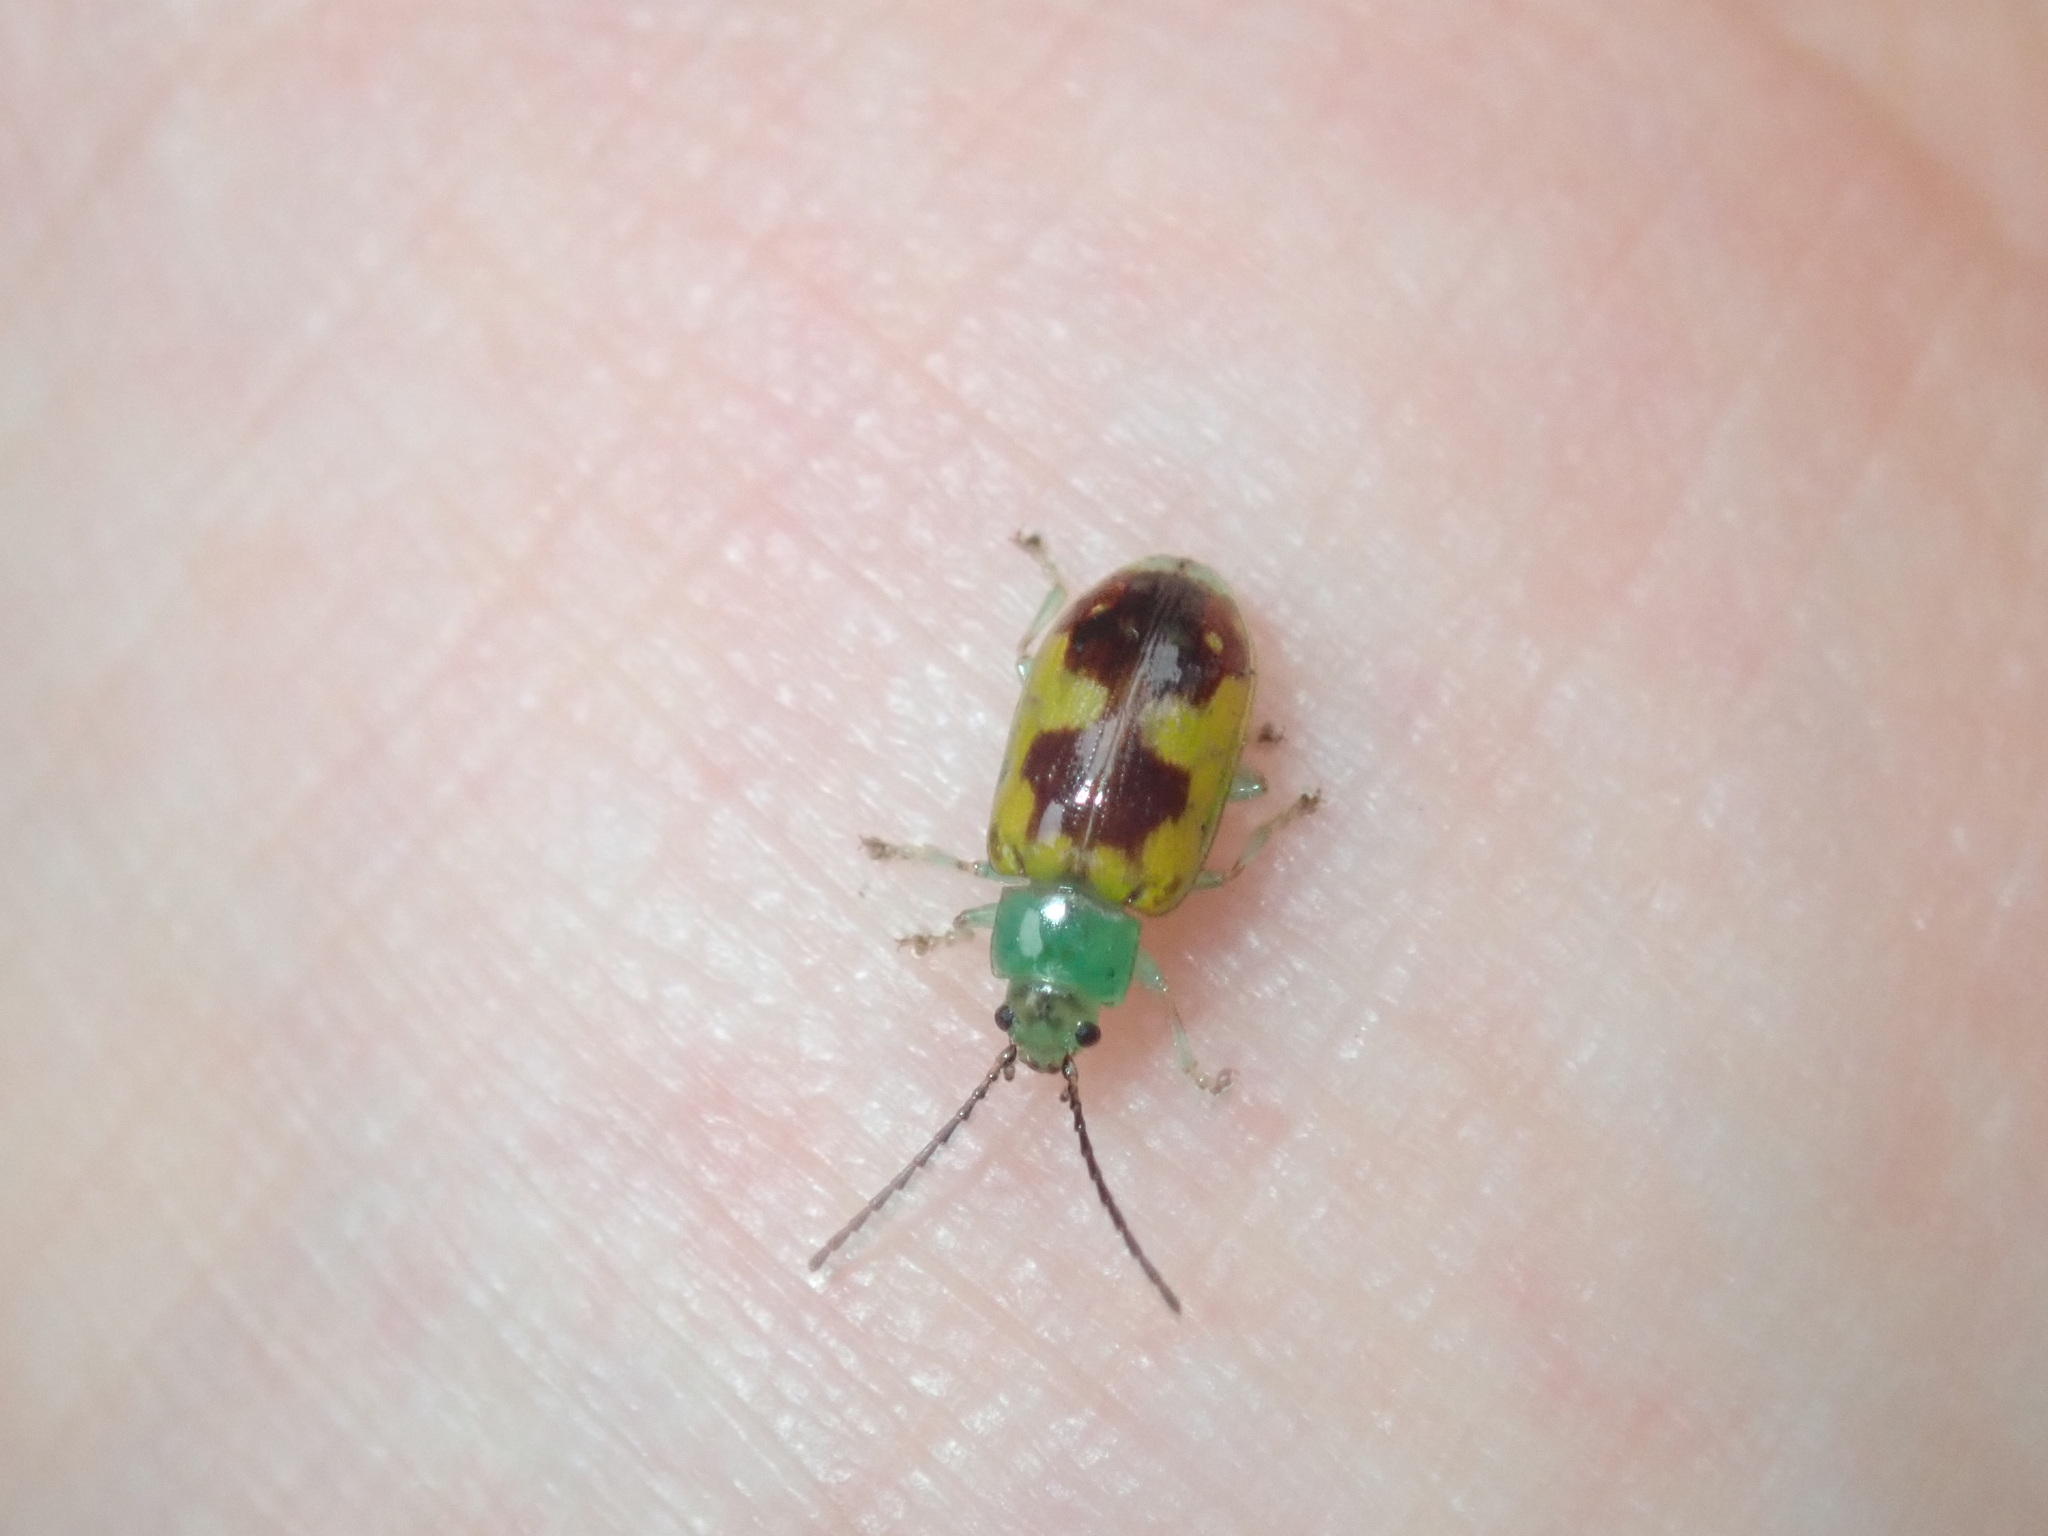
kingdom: Animalia
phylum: Arthropoda
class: Insecta
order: Coleoptera
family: Chrysomelidae
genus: Chalcolampra
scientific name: Chalcolampra
